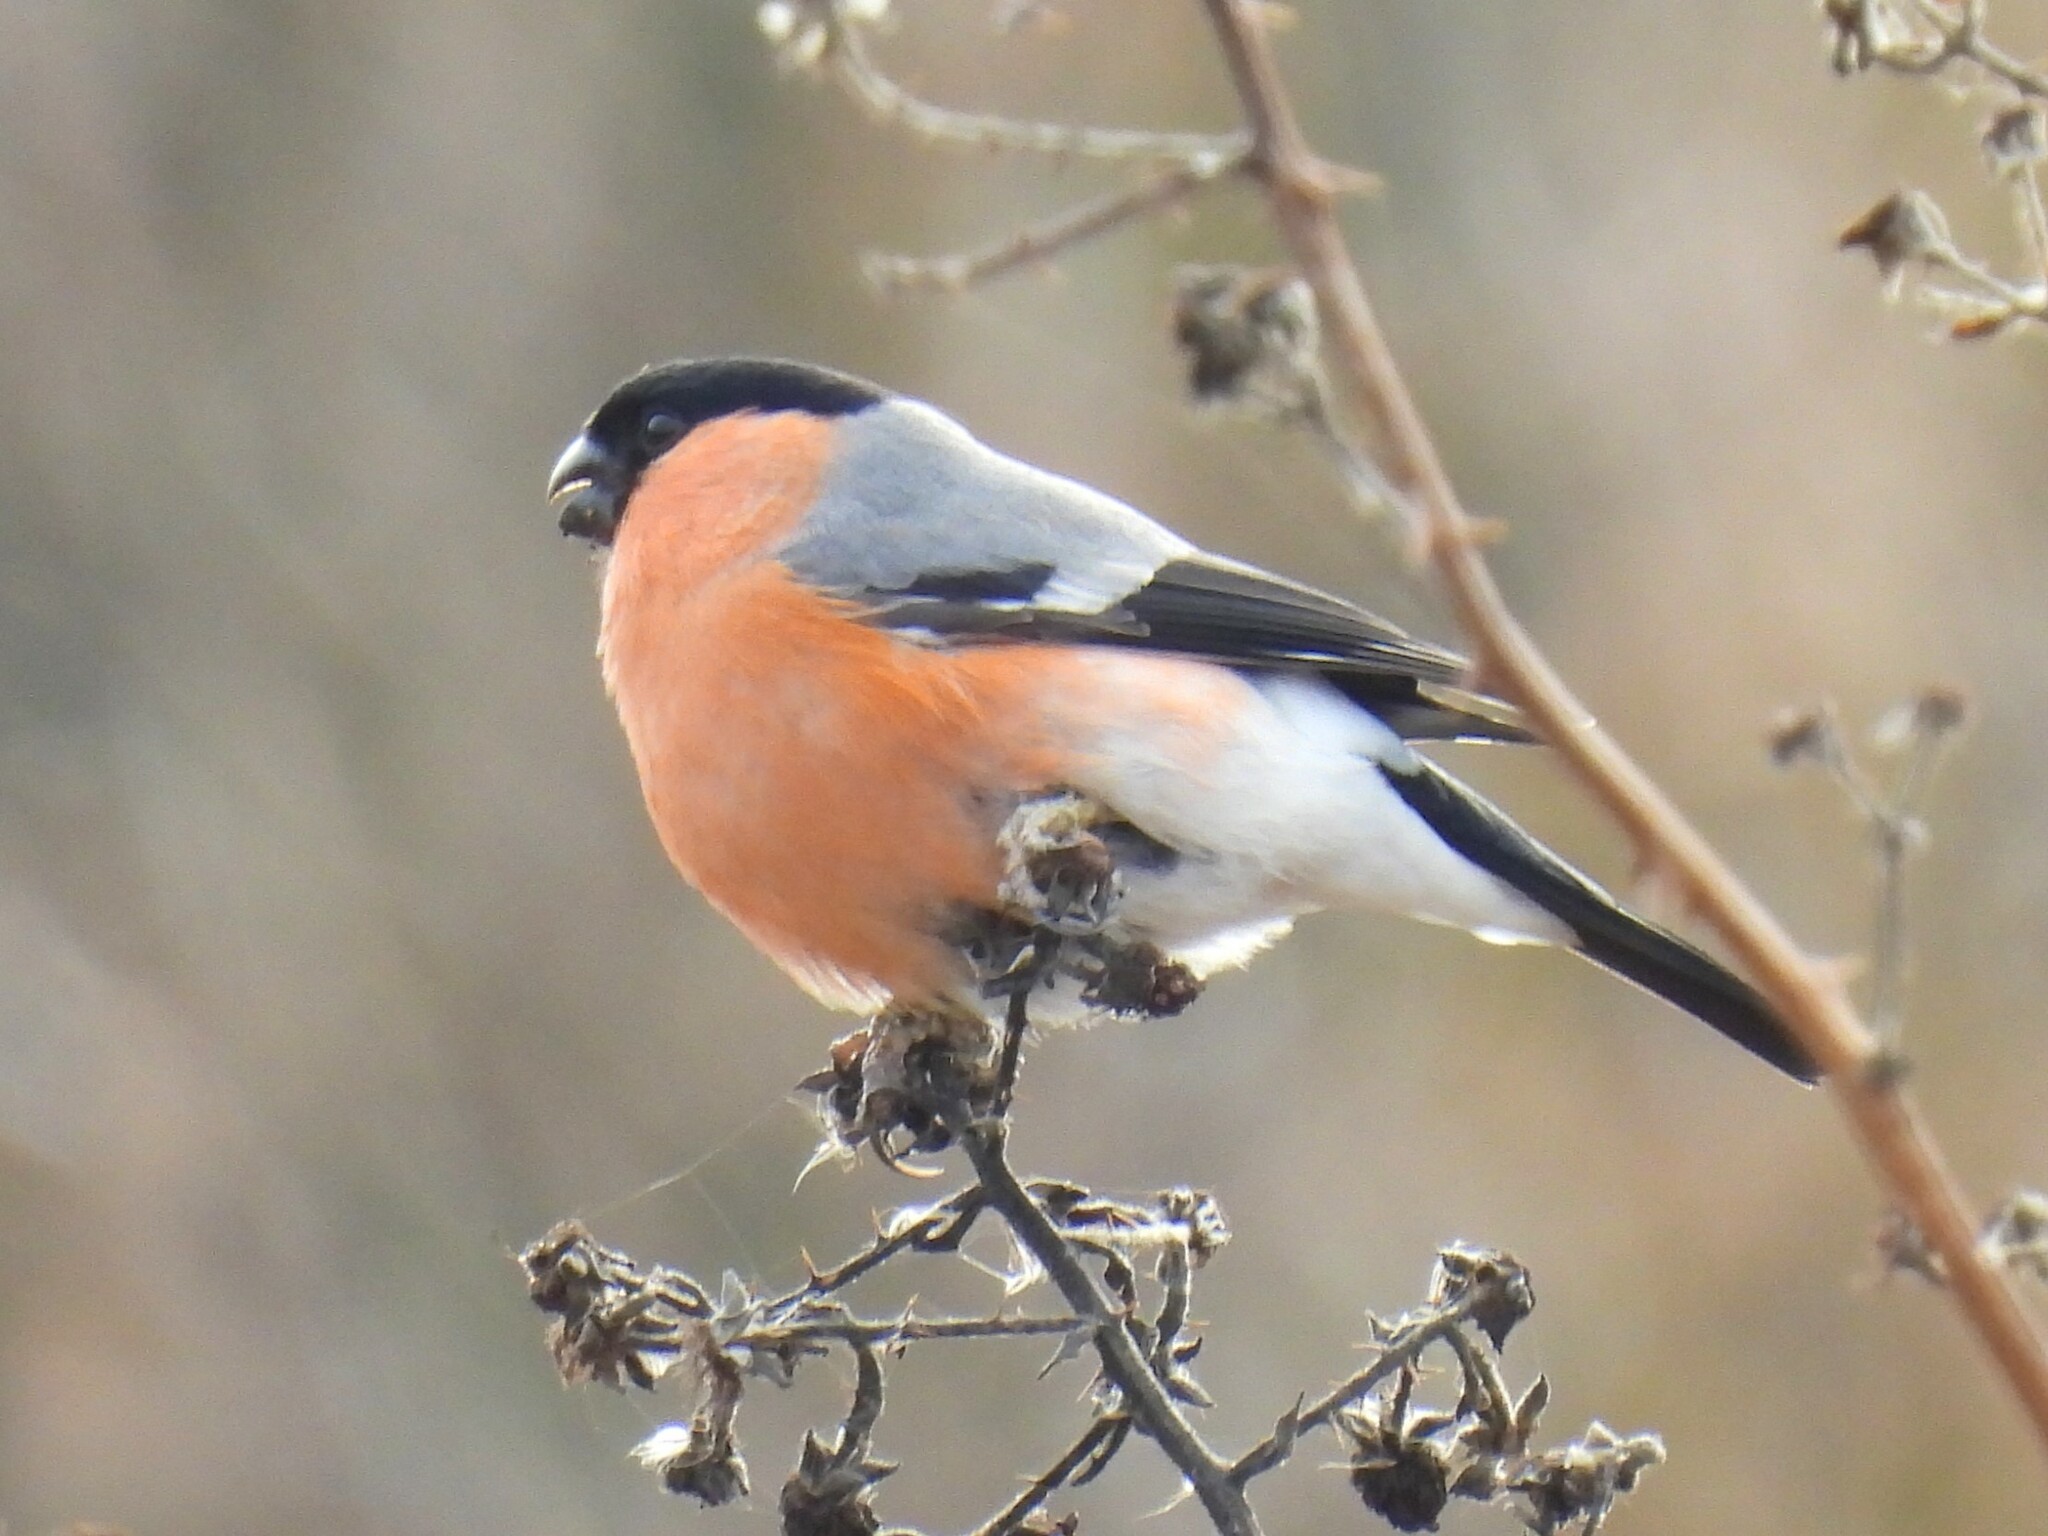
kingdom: Animalia
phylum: Chordata
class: Aves
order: Passeriformes
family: Fringillidae
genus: Pyrrhula
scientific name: Pyrrhula pyrrhula
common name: Eurasian bullfinch
